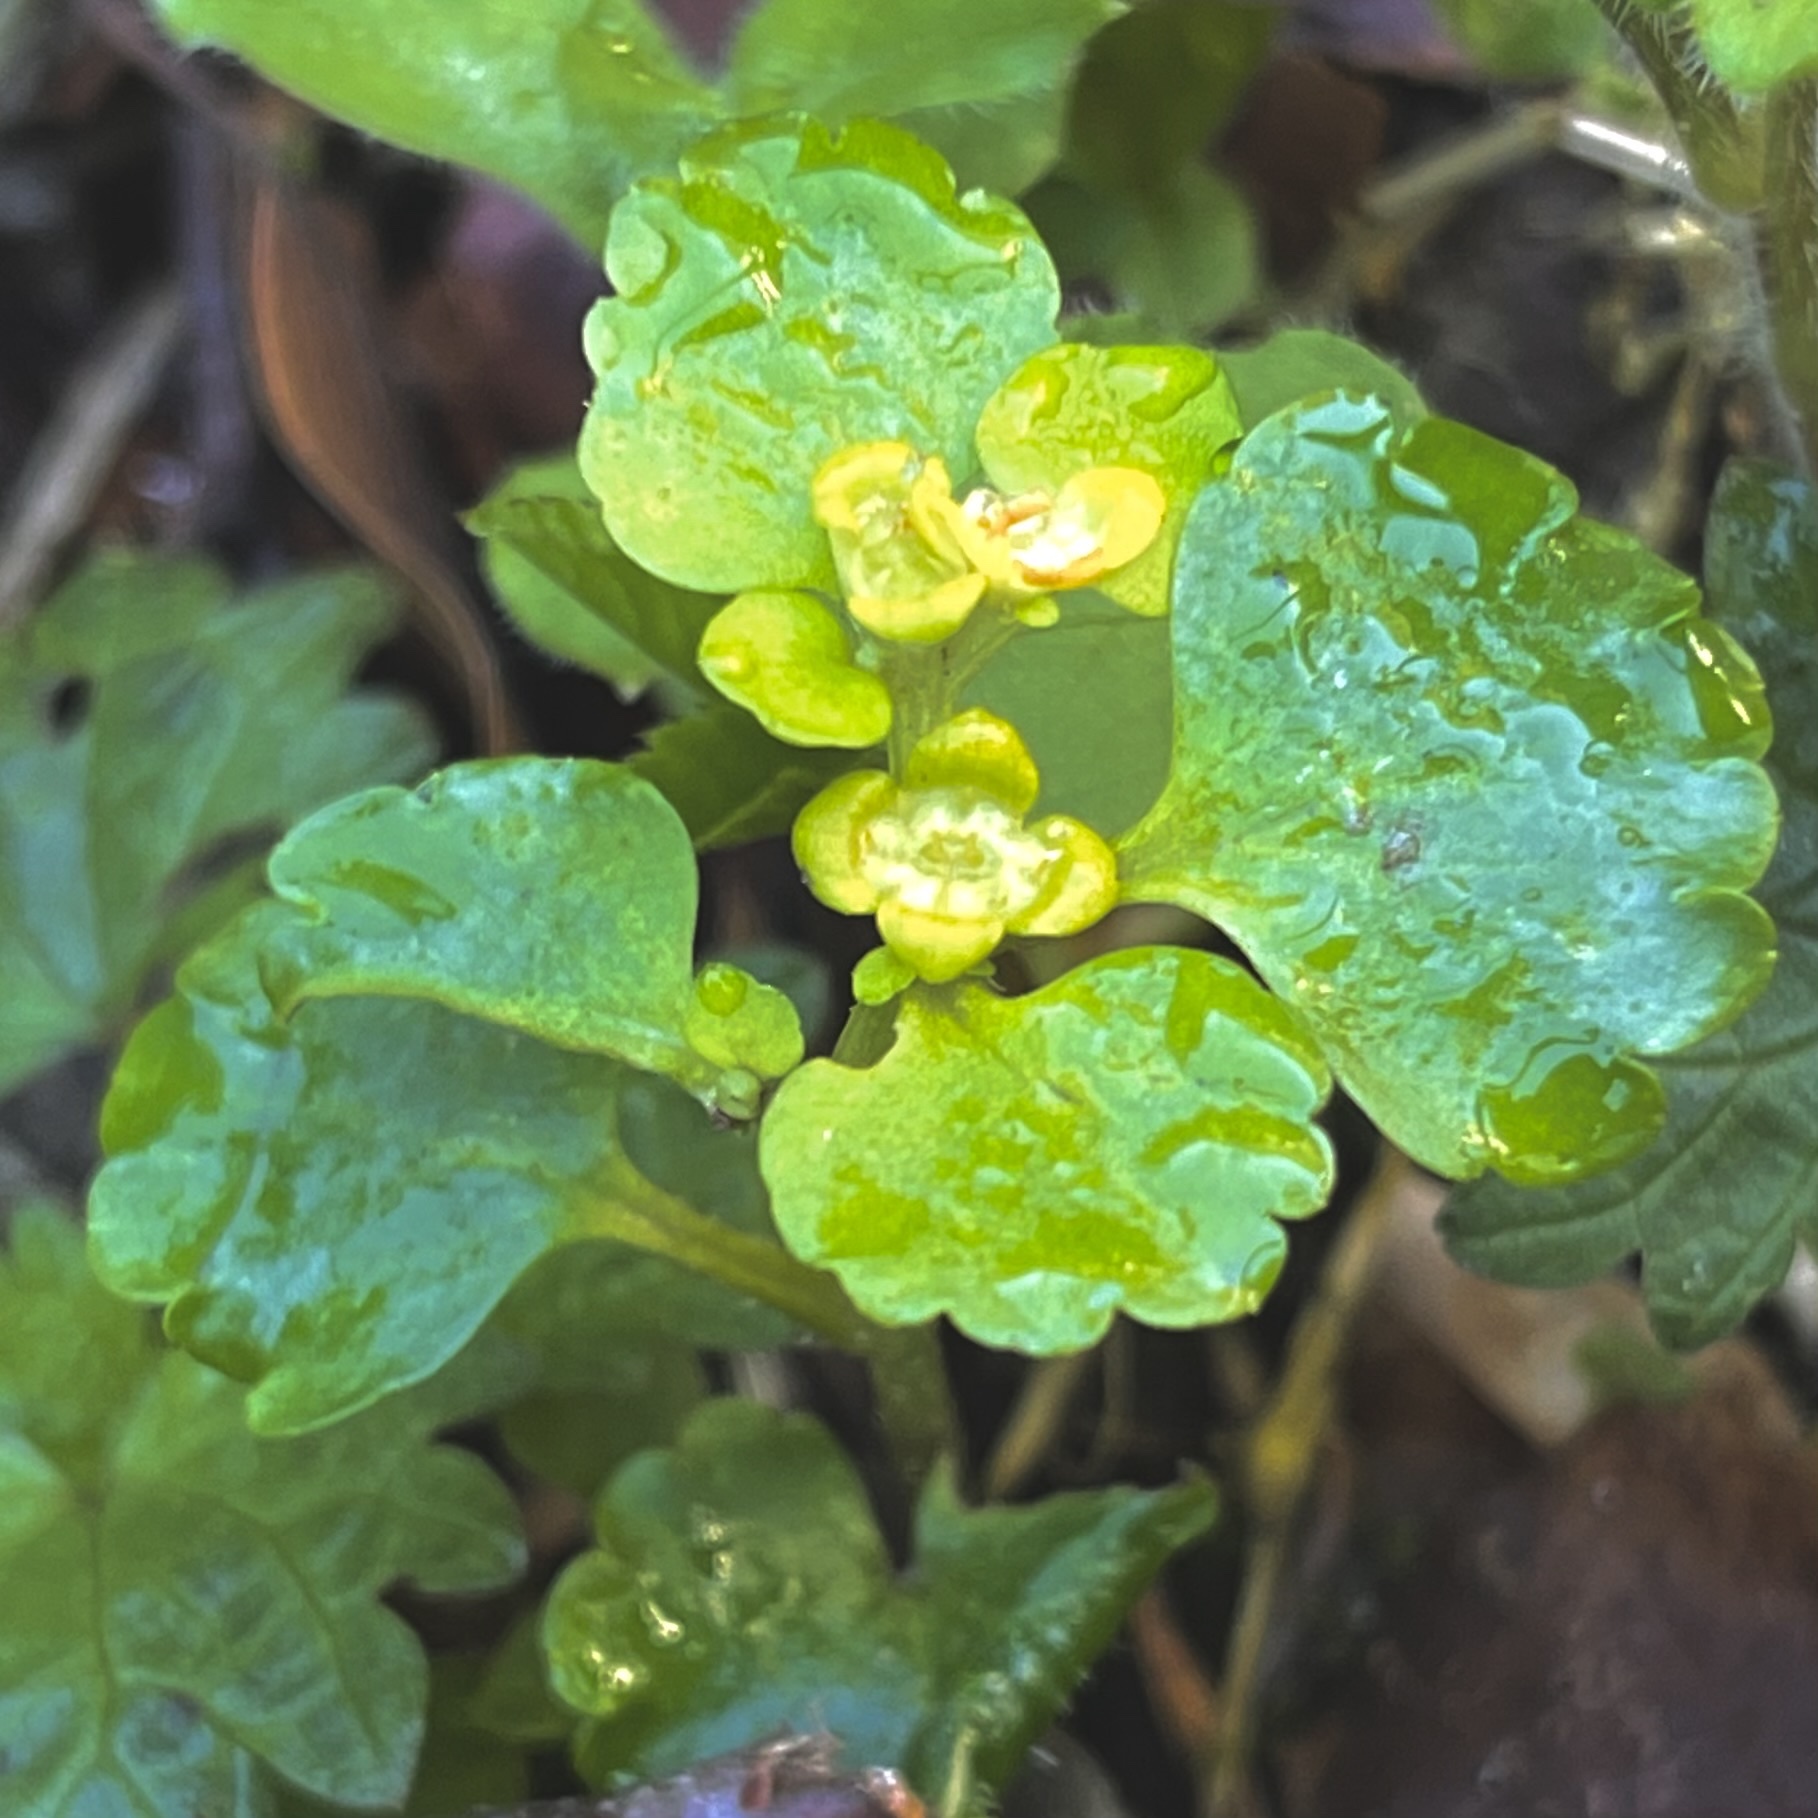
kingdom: Plantae
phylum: Tracheophyta
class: Magnoliopsida
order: Saxifragales
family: Saxifragaceae
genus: Chrysosplenium
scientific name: Chrysosplenium alternifolium
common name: Alternate-leaved golden-saxifrage
